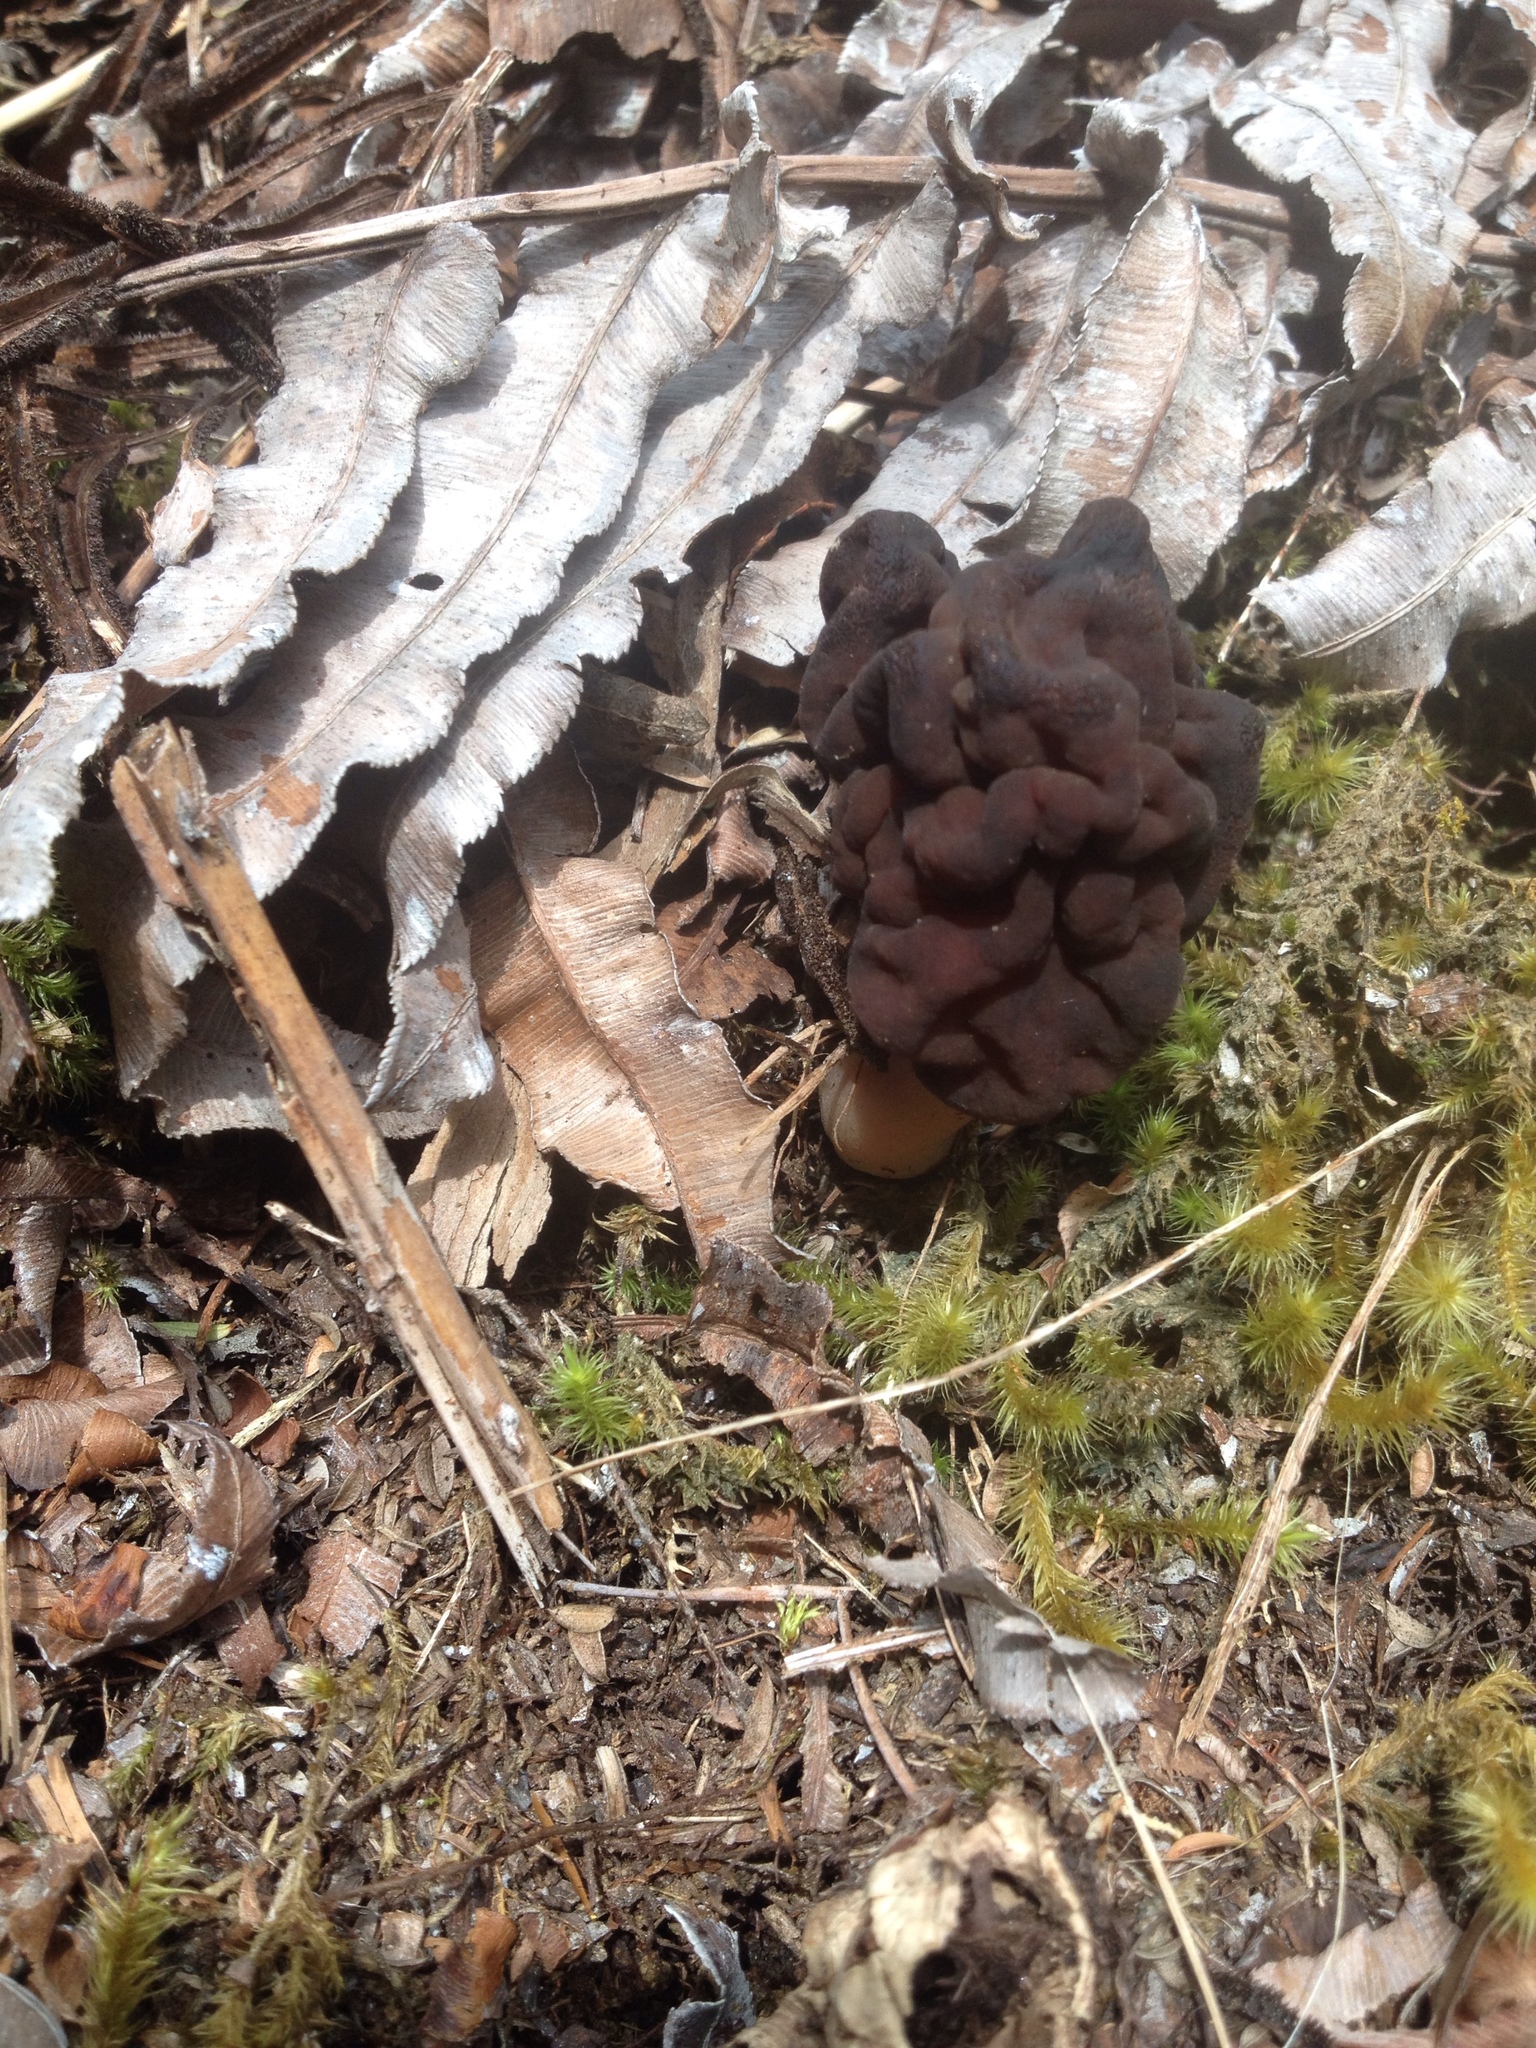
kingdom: Fungi
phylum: Ascomycota
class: Pezizomycetes
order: Pezizales
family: Discinaceae
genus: Gyromitra
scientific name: Gyromitra tasmanica
